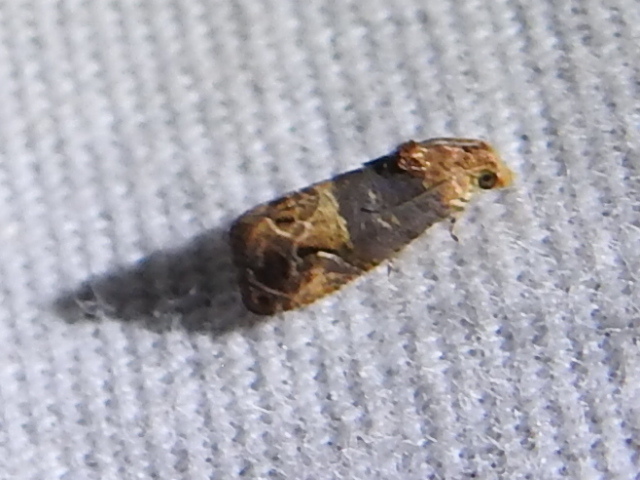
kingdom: Animalia
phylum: Arthropoda
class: Insecta
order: Lepidoptera
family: Tortricidae
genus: Paralobesia
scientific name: Paralobesia viteana
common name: Grape berry moth
